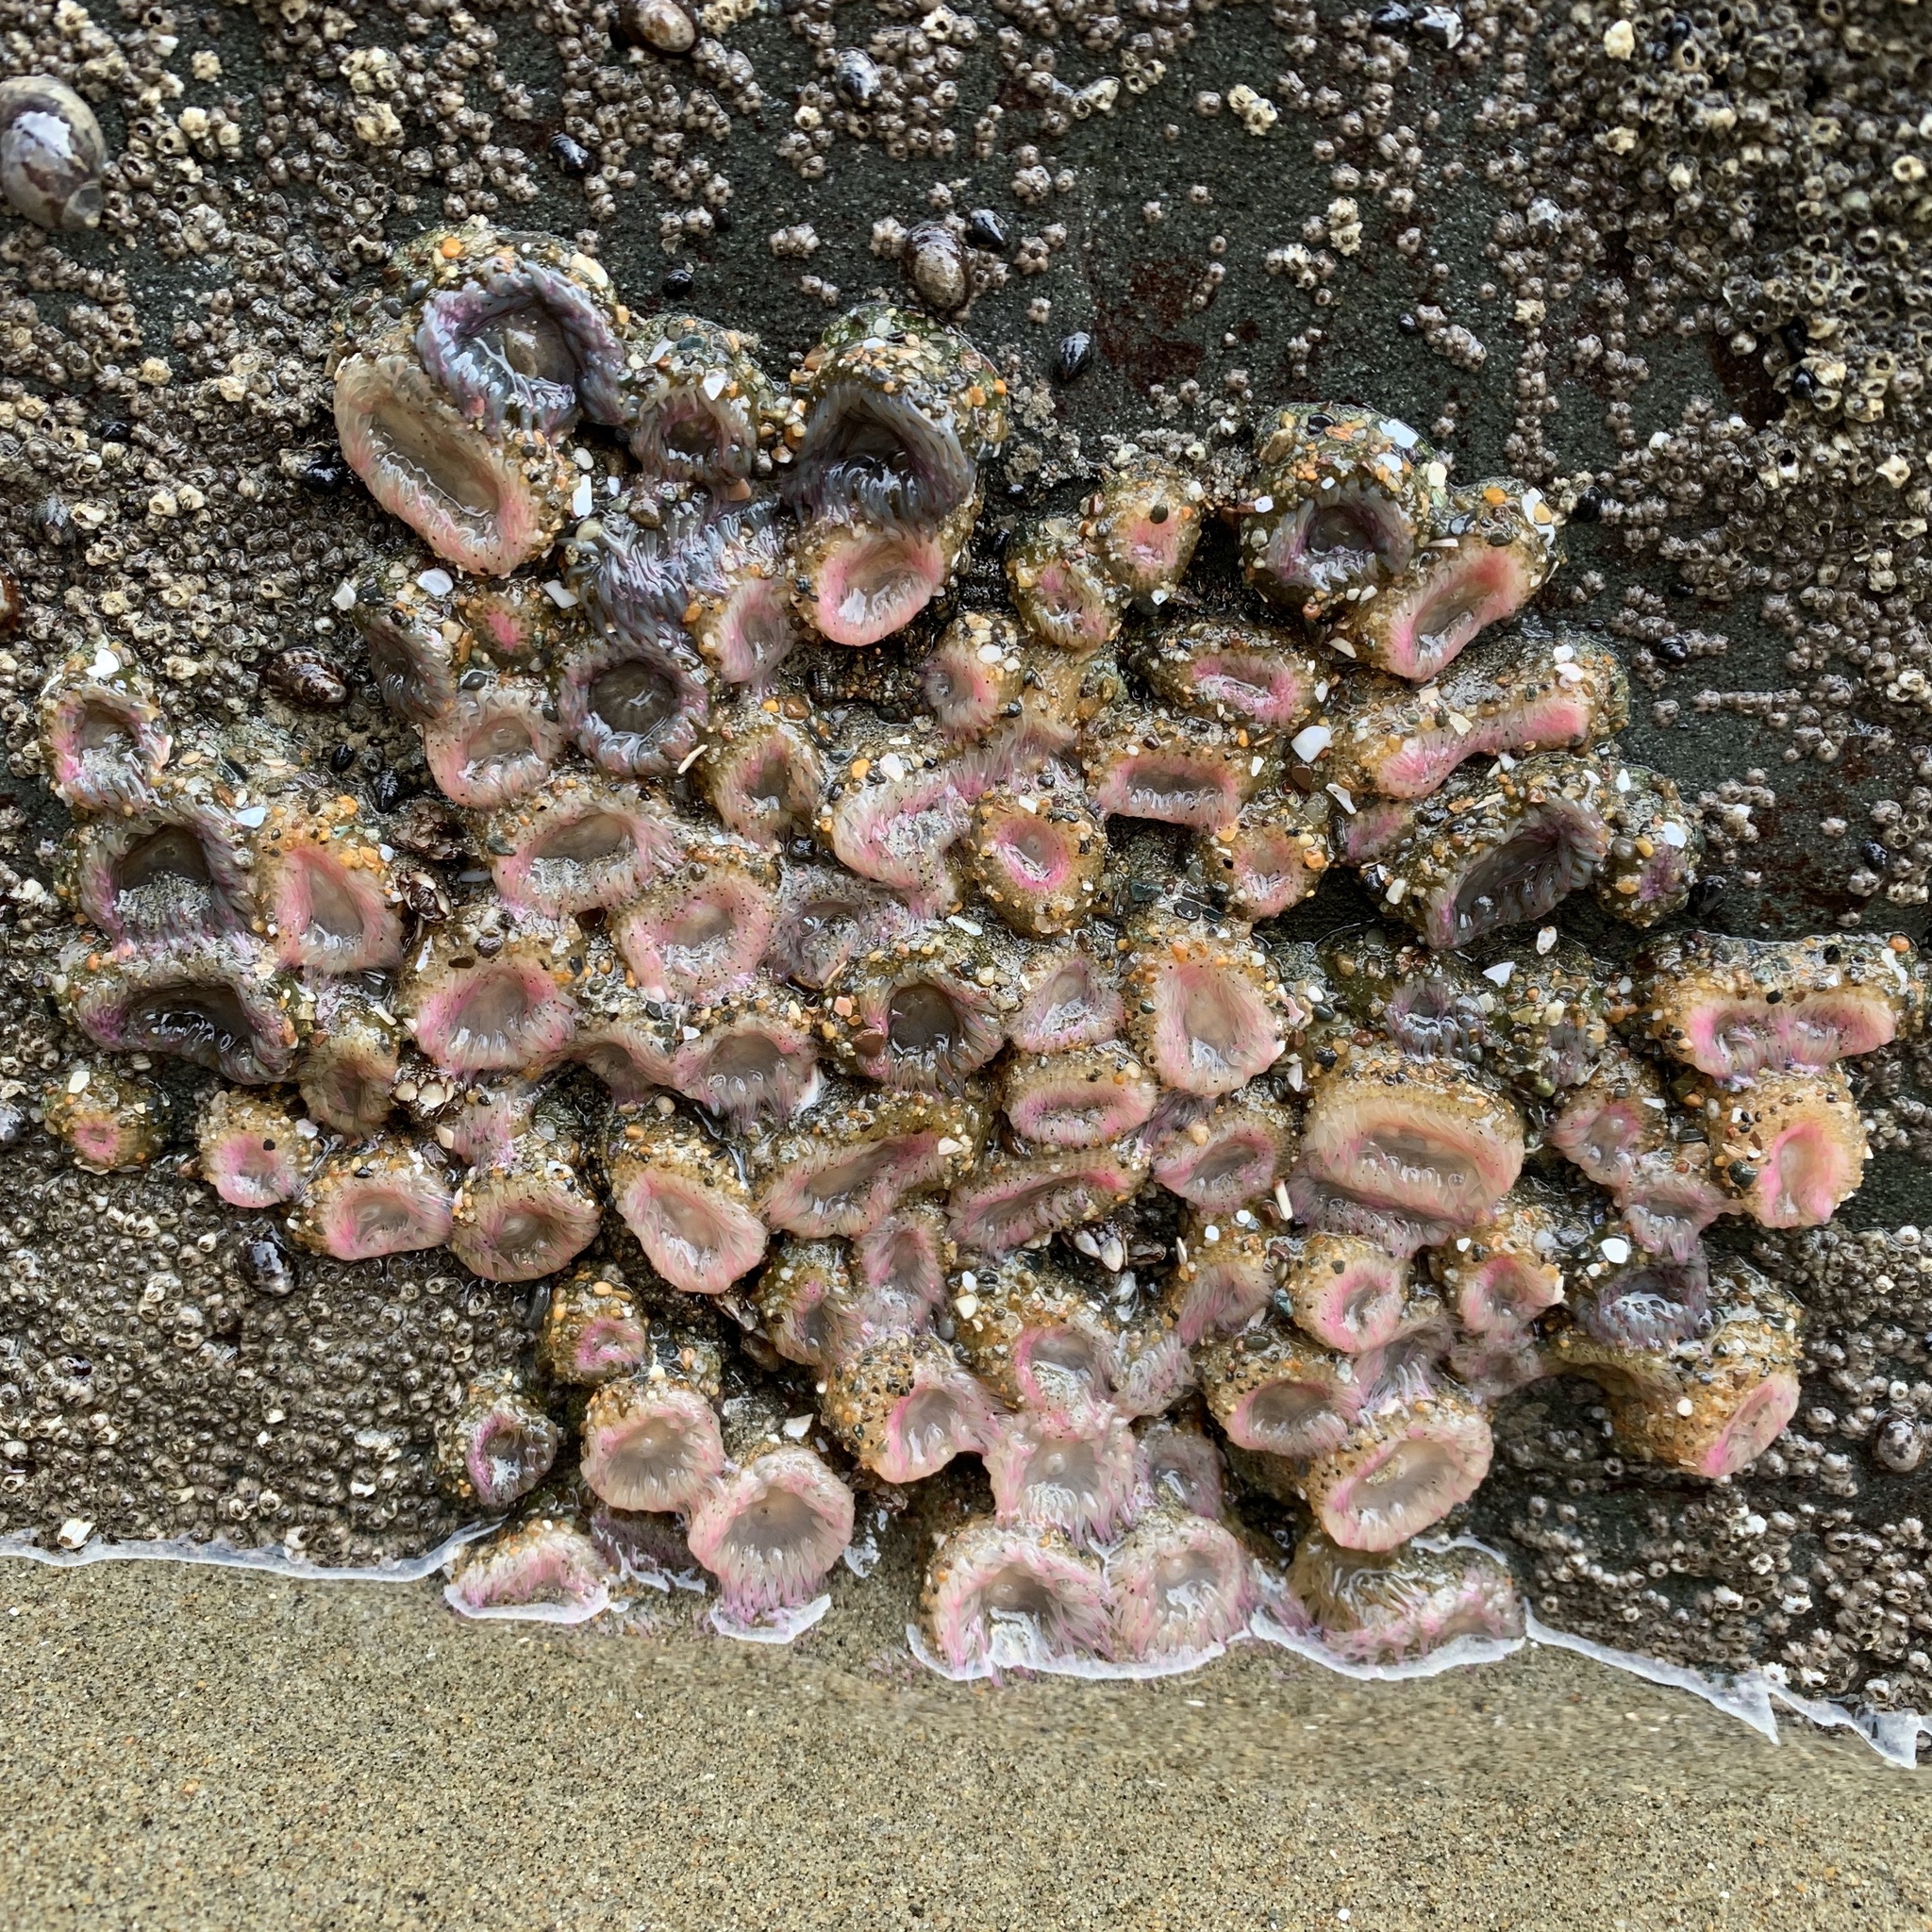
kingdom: Animalia
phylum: Cnidaria
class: Anthozoa
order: Actiniaria
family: Actiniidae
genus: Anthopleura
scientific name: Anthopleura elegantissima
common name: Clonal anemone
